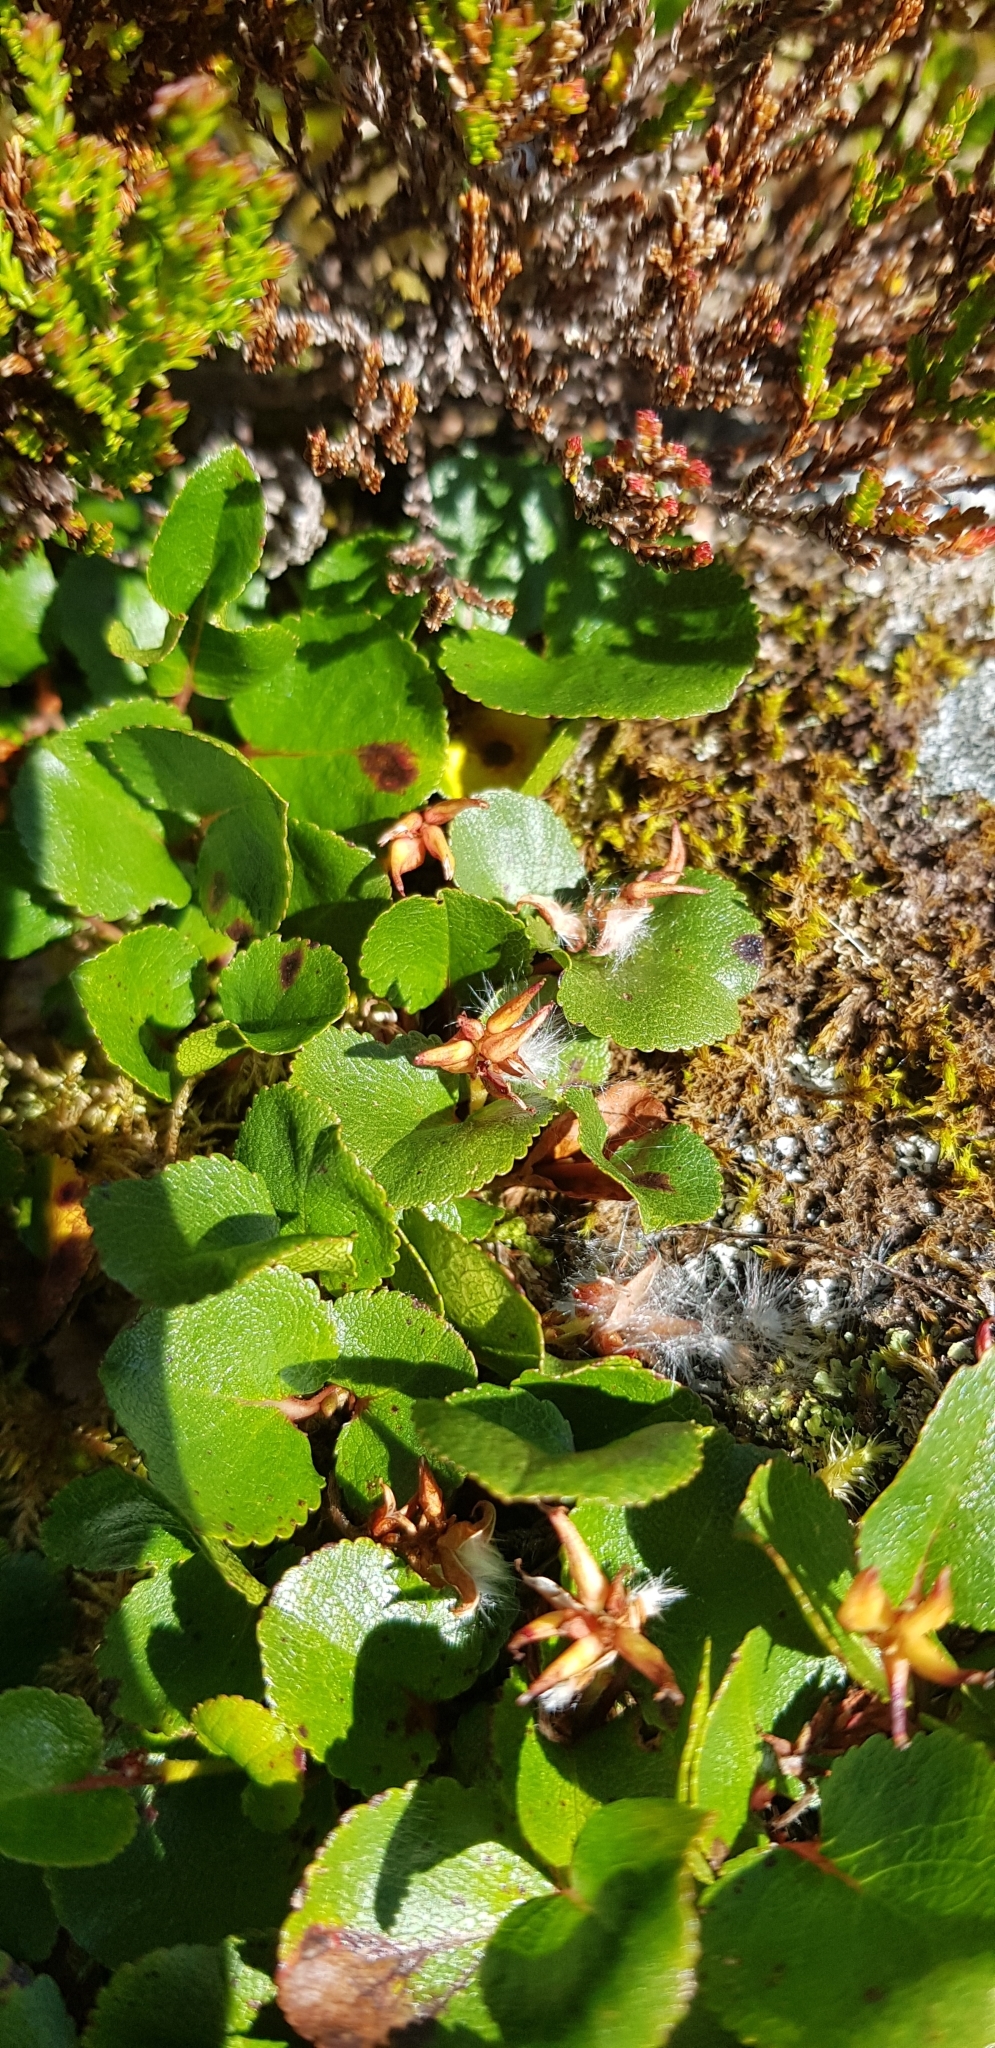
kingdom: Plantae
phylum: Tracheophyta
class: Magnoliopsida
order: Malpighiales
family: Salicaceae
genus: Salix
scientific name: Salix herbacea
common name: Dwarf willow
